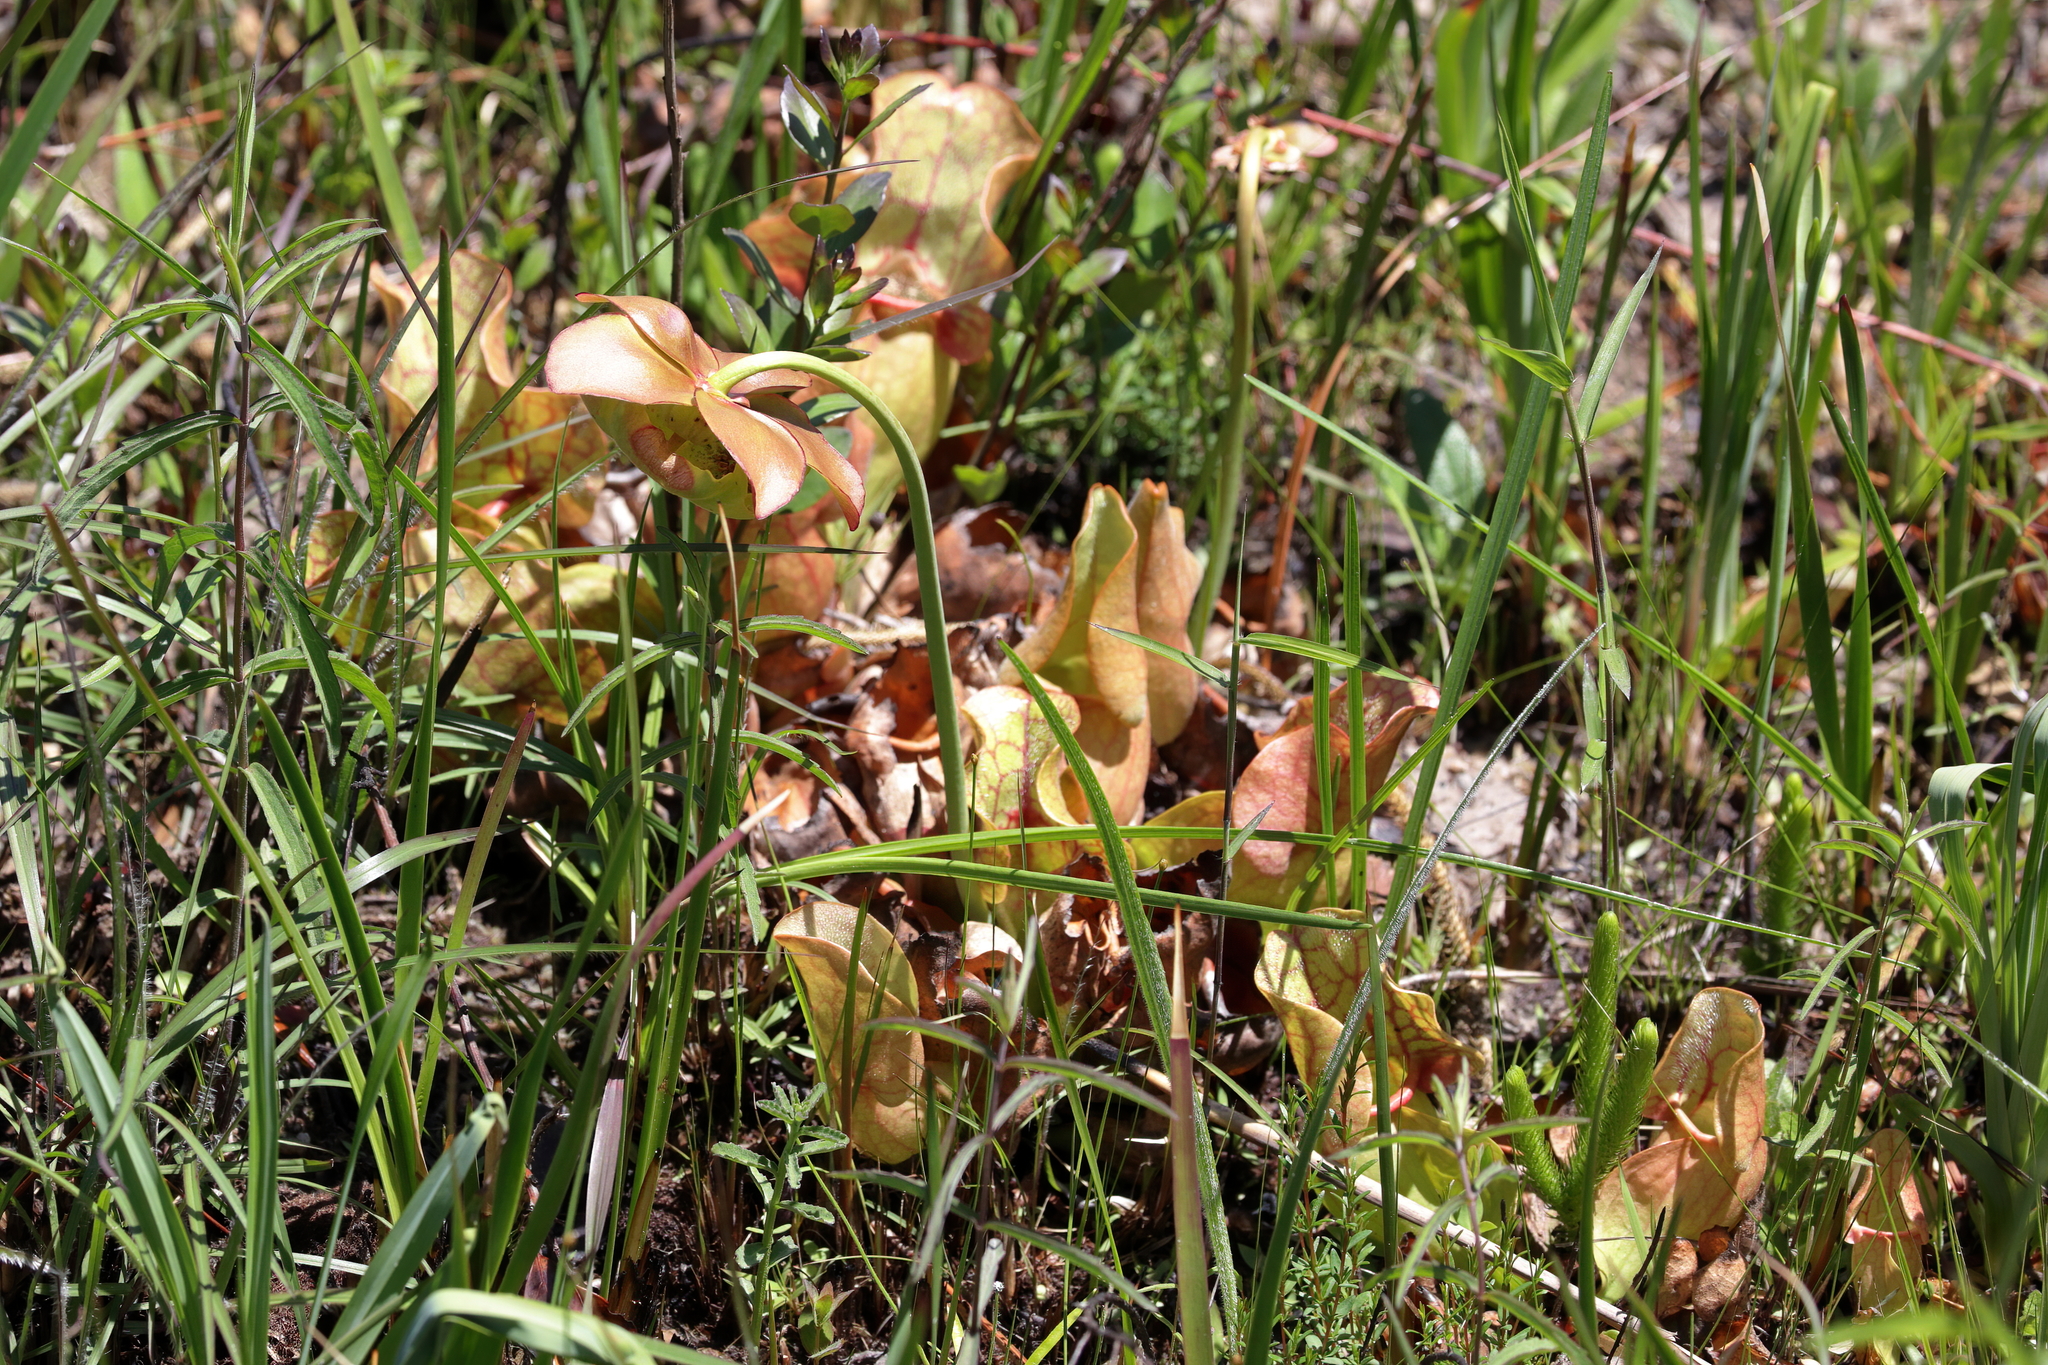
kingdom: Plantae
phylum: Tracheophyta
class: Magnoliopsida
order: Ericales
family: Sarraceniaceae
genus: Sarracenia
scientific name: Sarracenia rosea
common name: Pink pitcherplant
